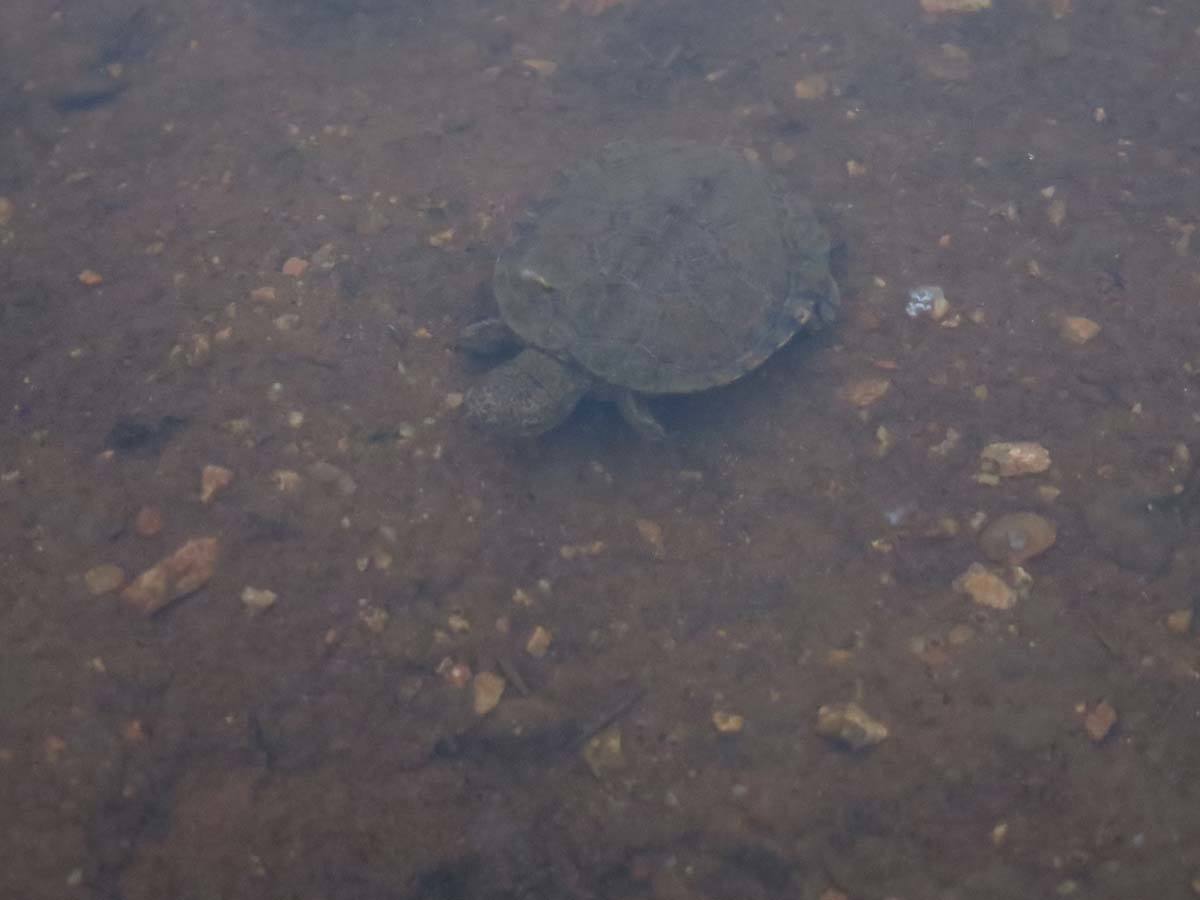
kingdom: Animalia
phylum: Chordata
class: Testudines
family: Pelomedusidae
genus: Pelusios
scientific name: Pelusios sinuatus
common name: Serrated hinged terrapin
